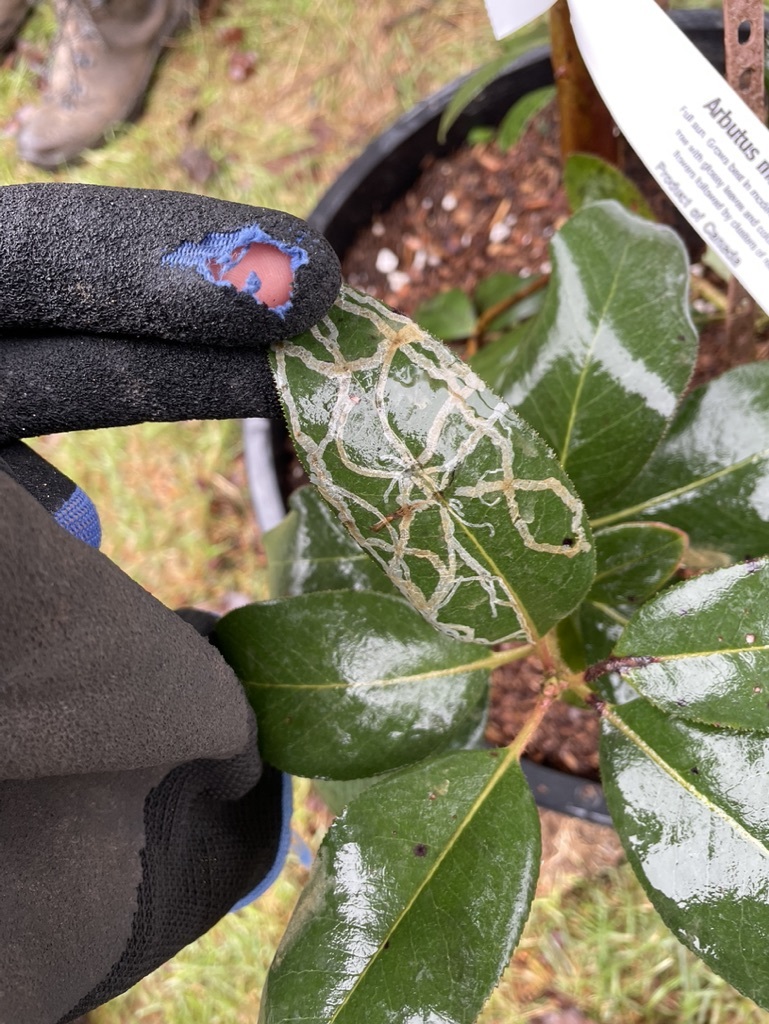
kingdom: Animalia
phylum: Arthropoda
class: Insecta
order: Lepidoptera
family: Gracillariidae
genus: Marmara
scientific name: Marmara arbutiella
